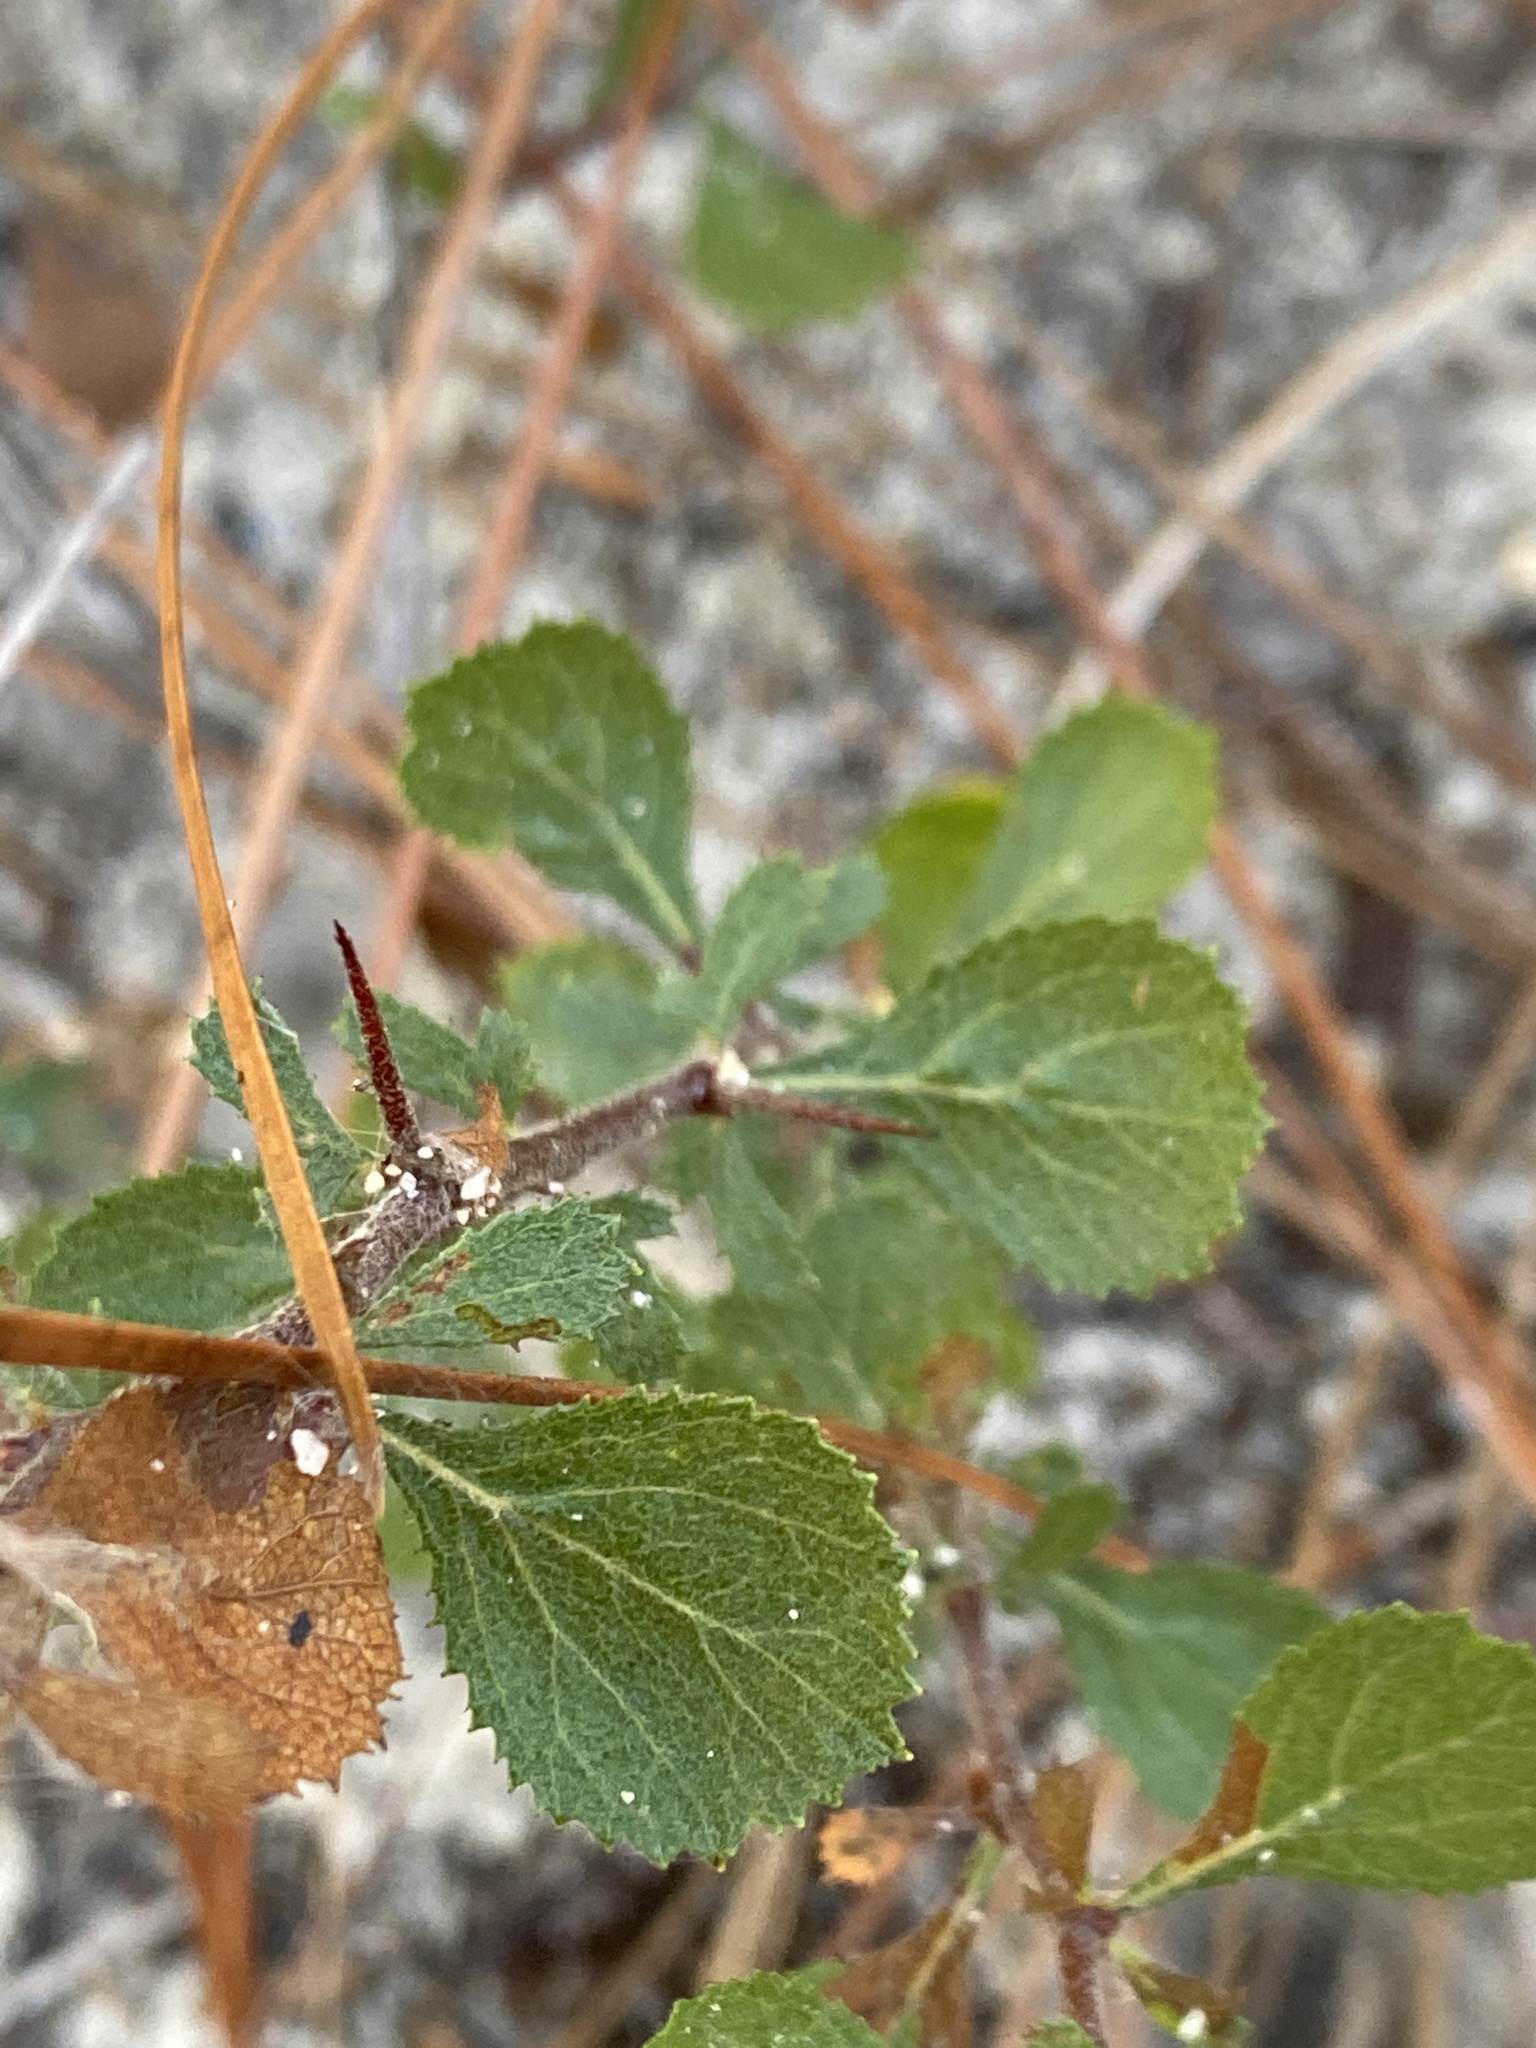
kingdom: Plantae
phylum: Tracheophyta
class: Magnoliopsida
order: Rosales
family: Rosaceae
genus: Crataegus
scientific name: Crataegus munda
